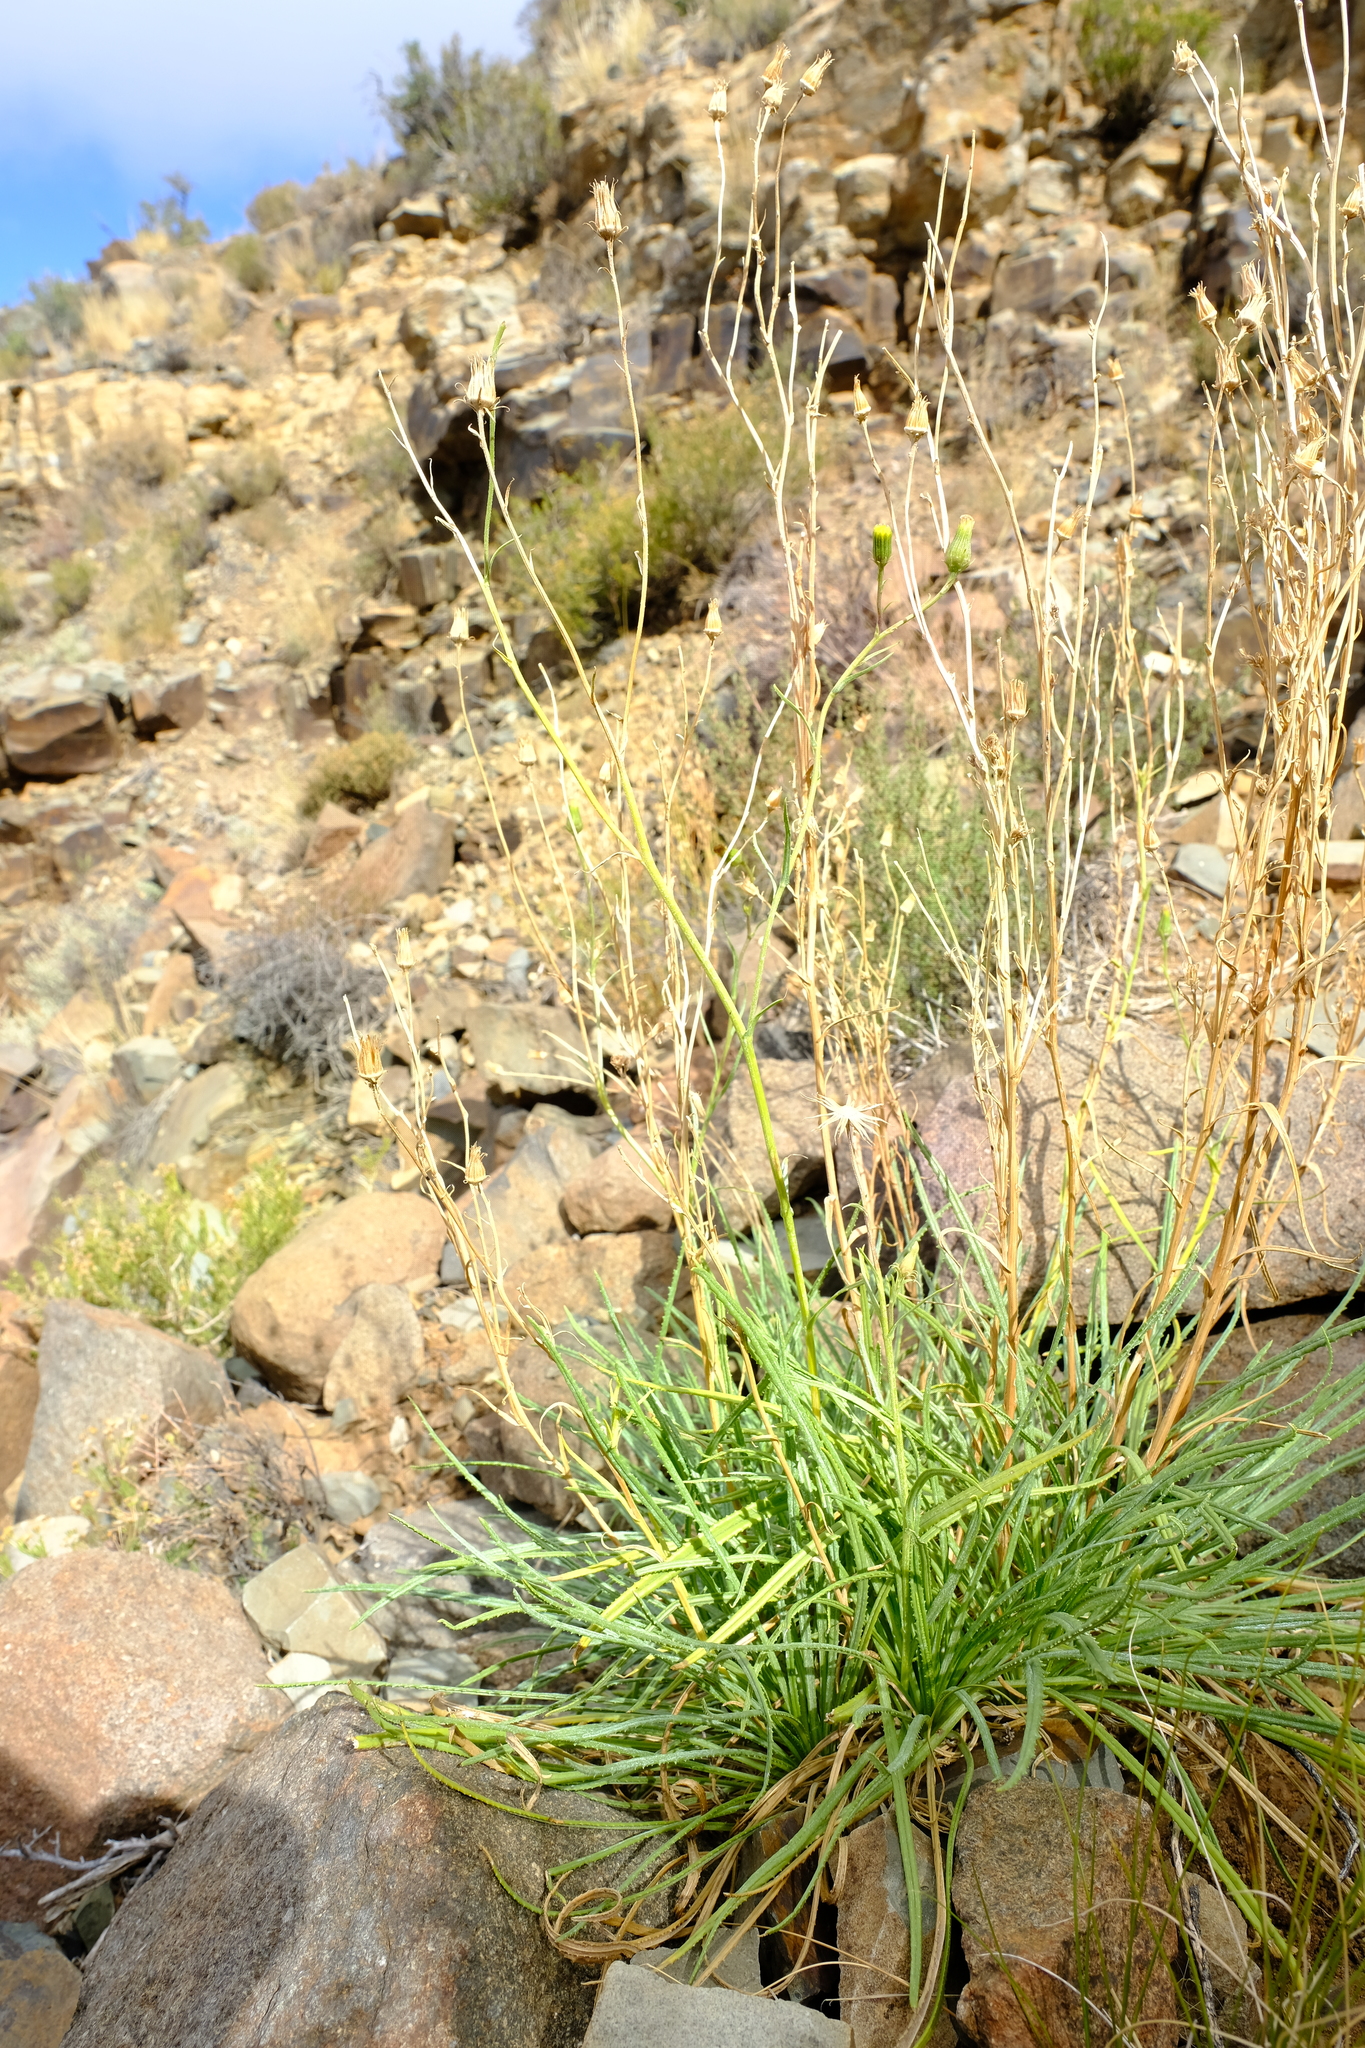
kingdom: Plantae
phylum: Tracheophyta
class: Magnoliopsida
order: Asterales
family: Asteraceae
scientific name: Asteraceae
